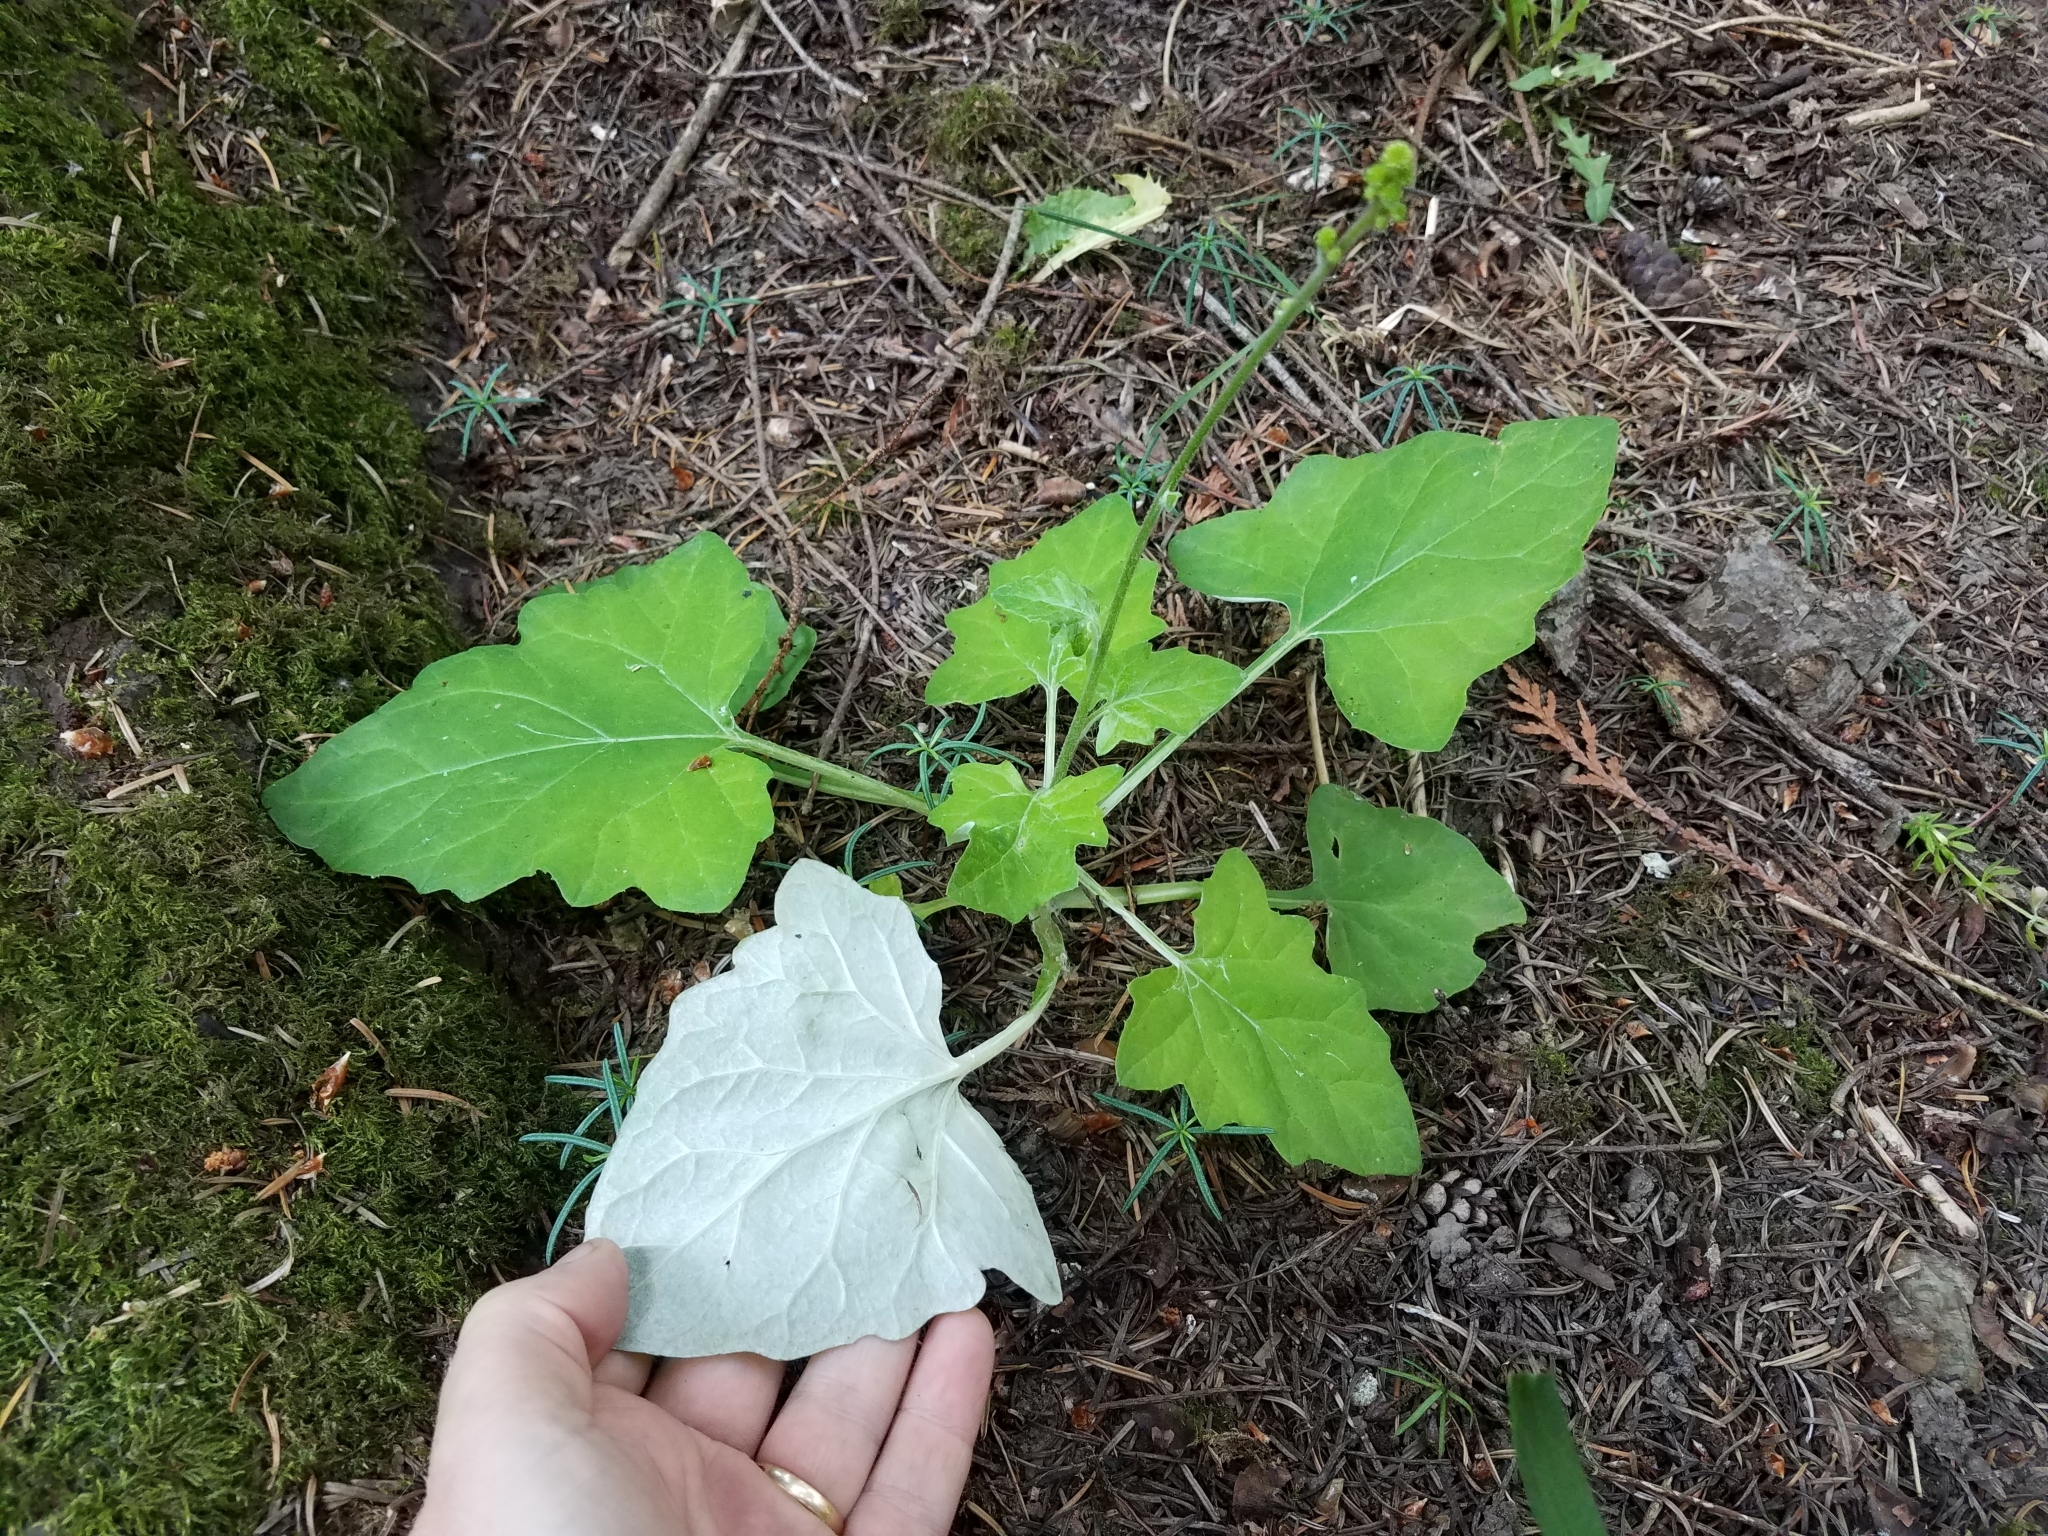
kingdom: Plantae
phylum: Tracheophyta
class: Magnoliopsida
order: Asterales
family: Asteraceae
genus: Adenocaulon
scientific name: Adenocaulon bicolor
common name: Trailplant
